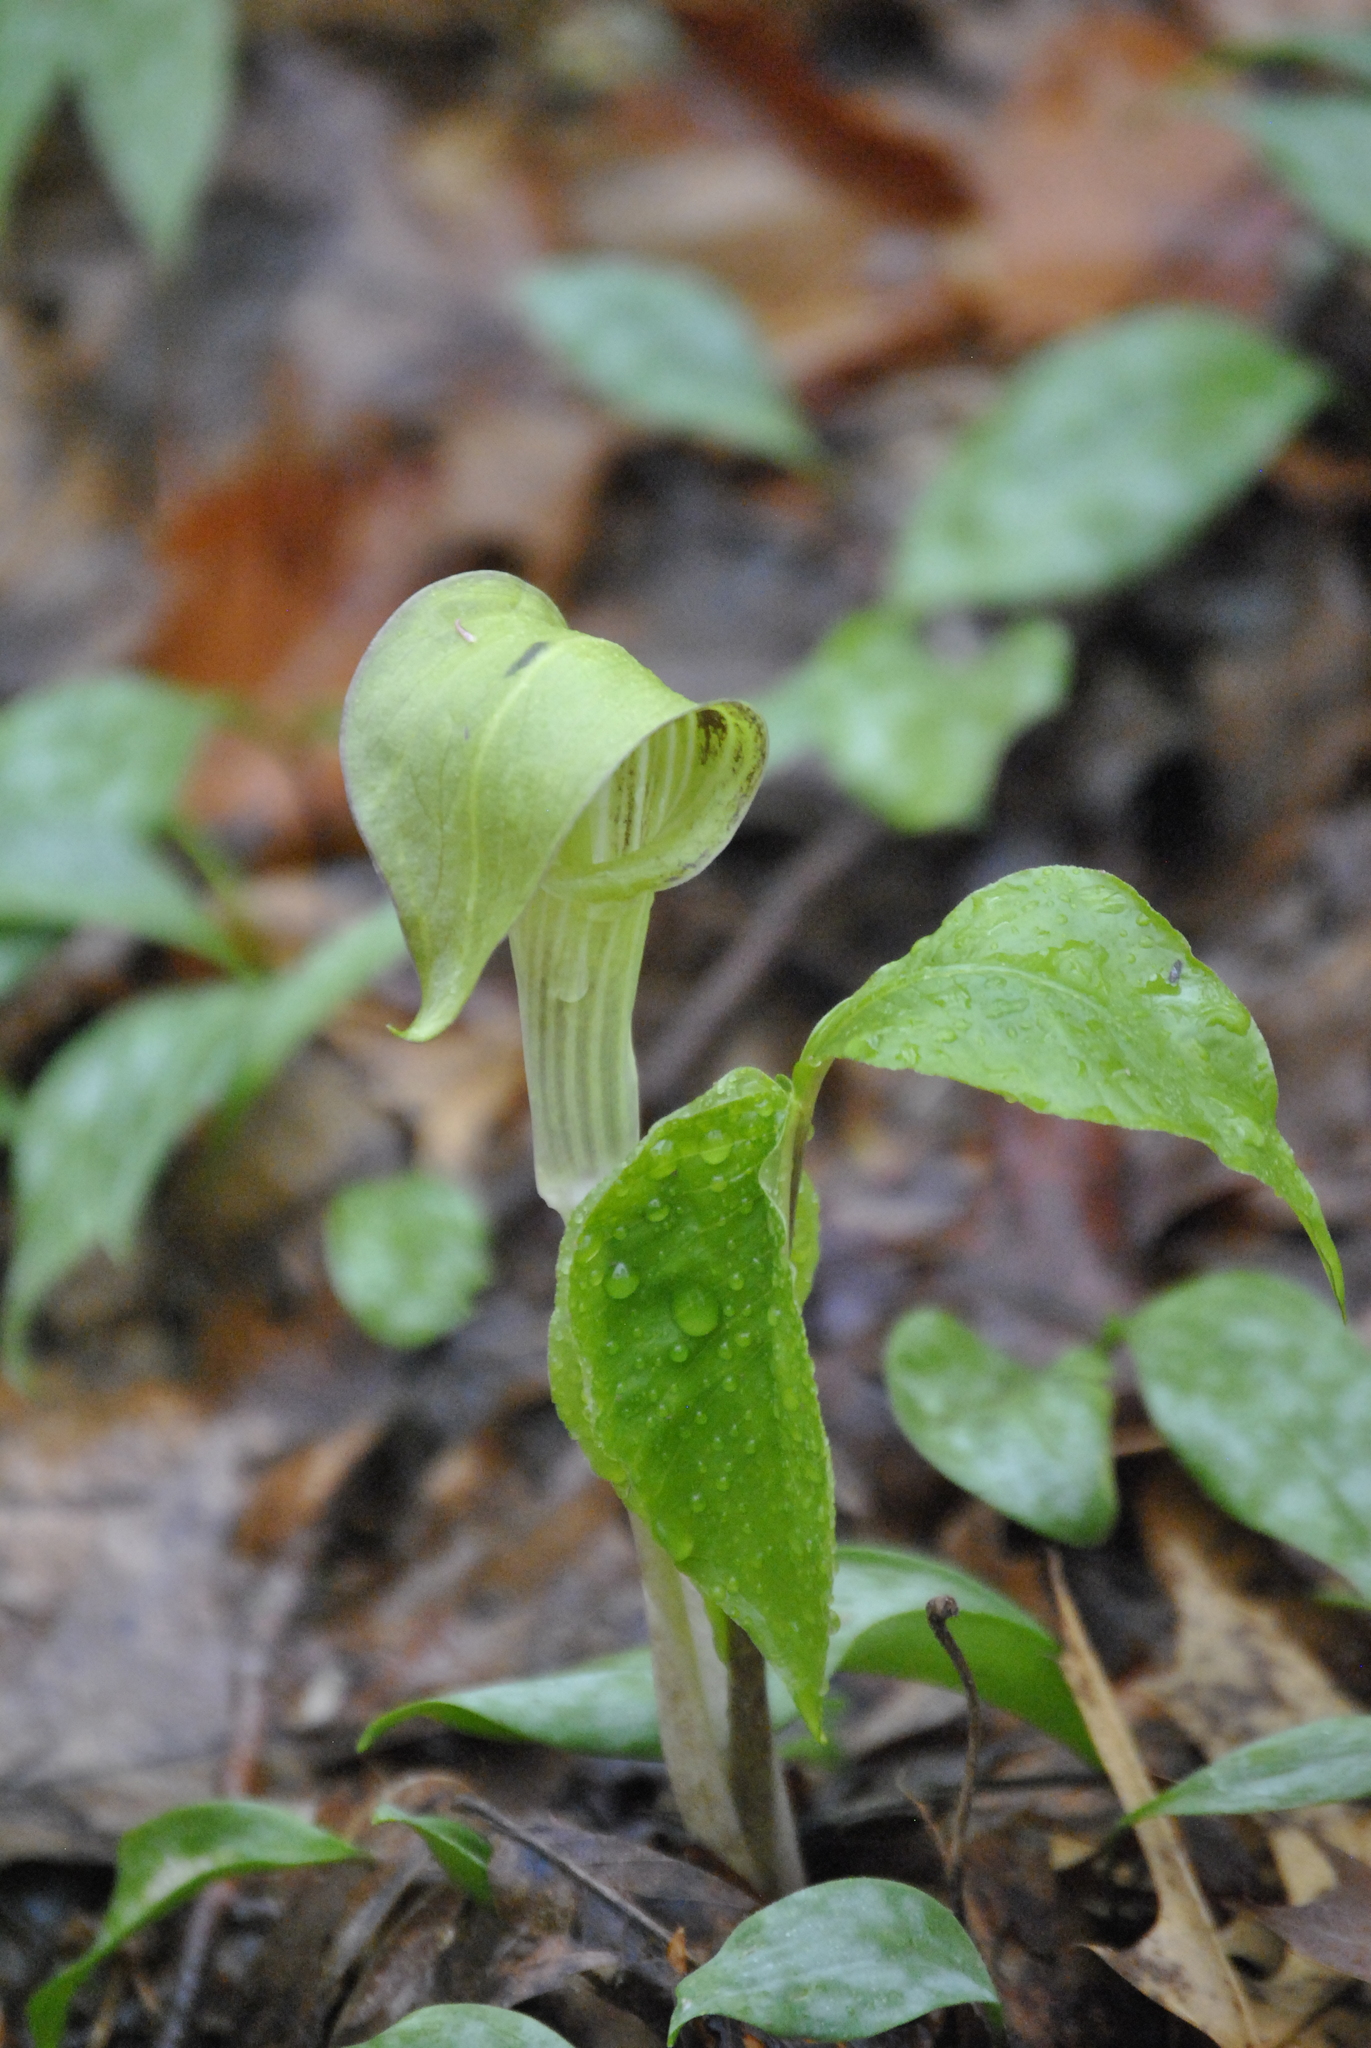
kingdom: Plantae
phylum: Tracheophyta
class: Liliopsida
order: Alismatales
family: Araceae
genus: Arisaema
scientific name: Arisaema triphyllum
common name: Jack-in-the-pulpit
